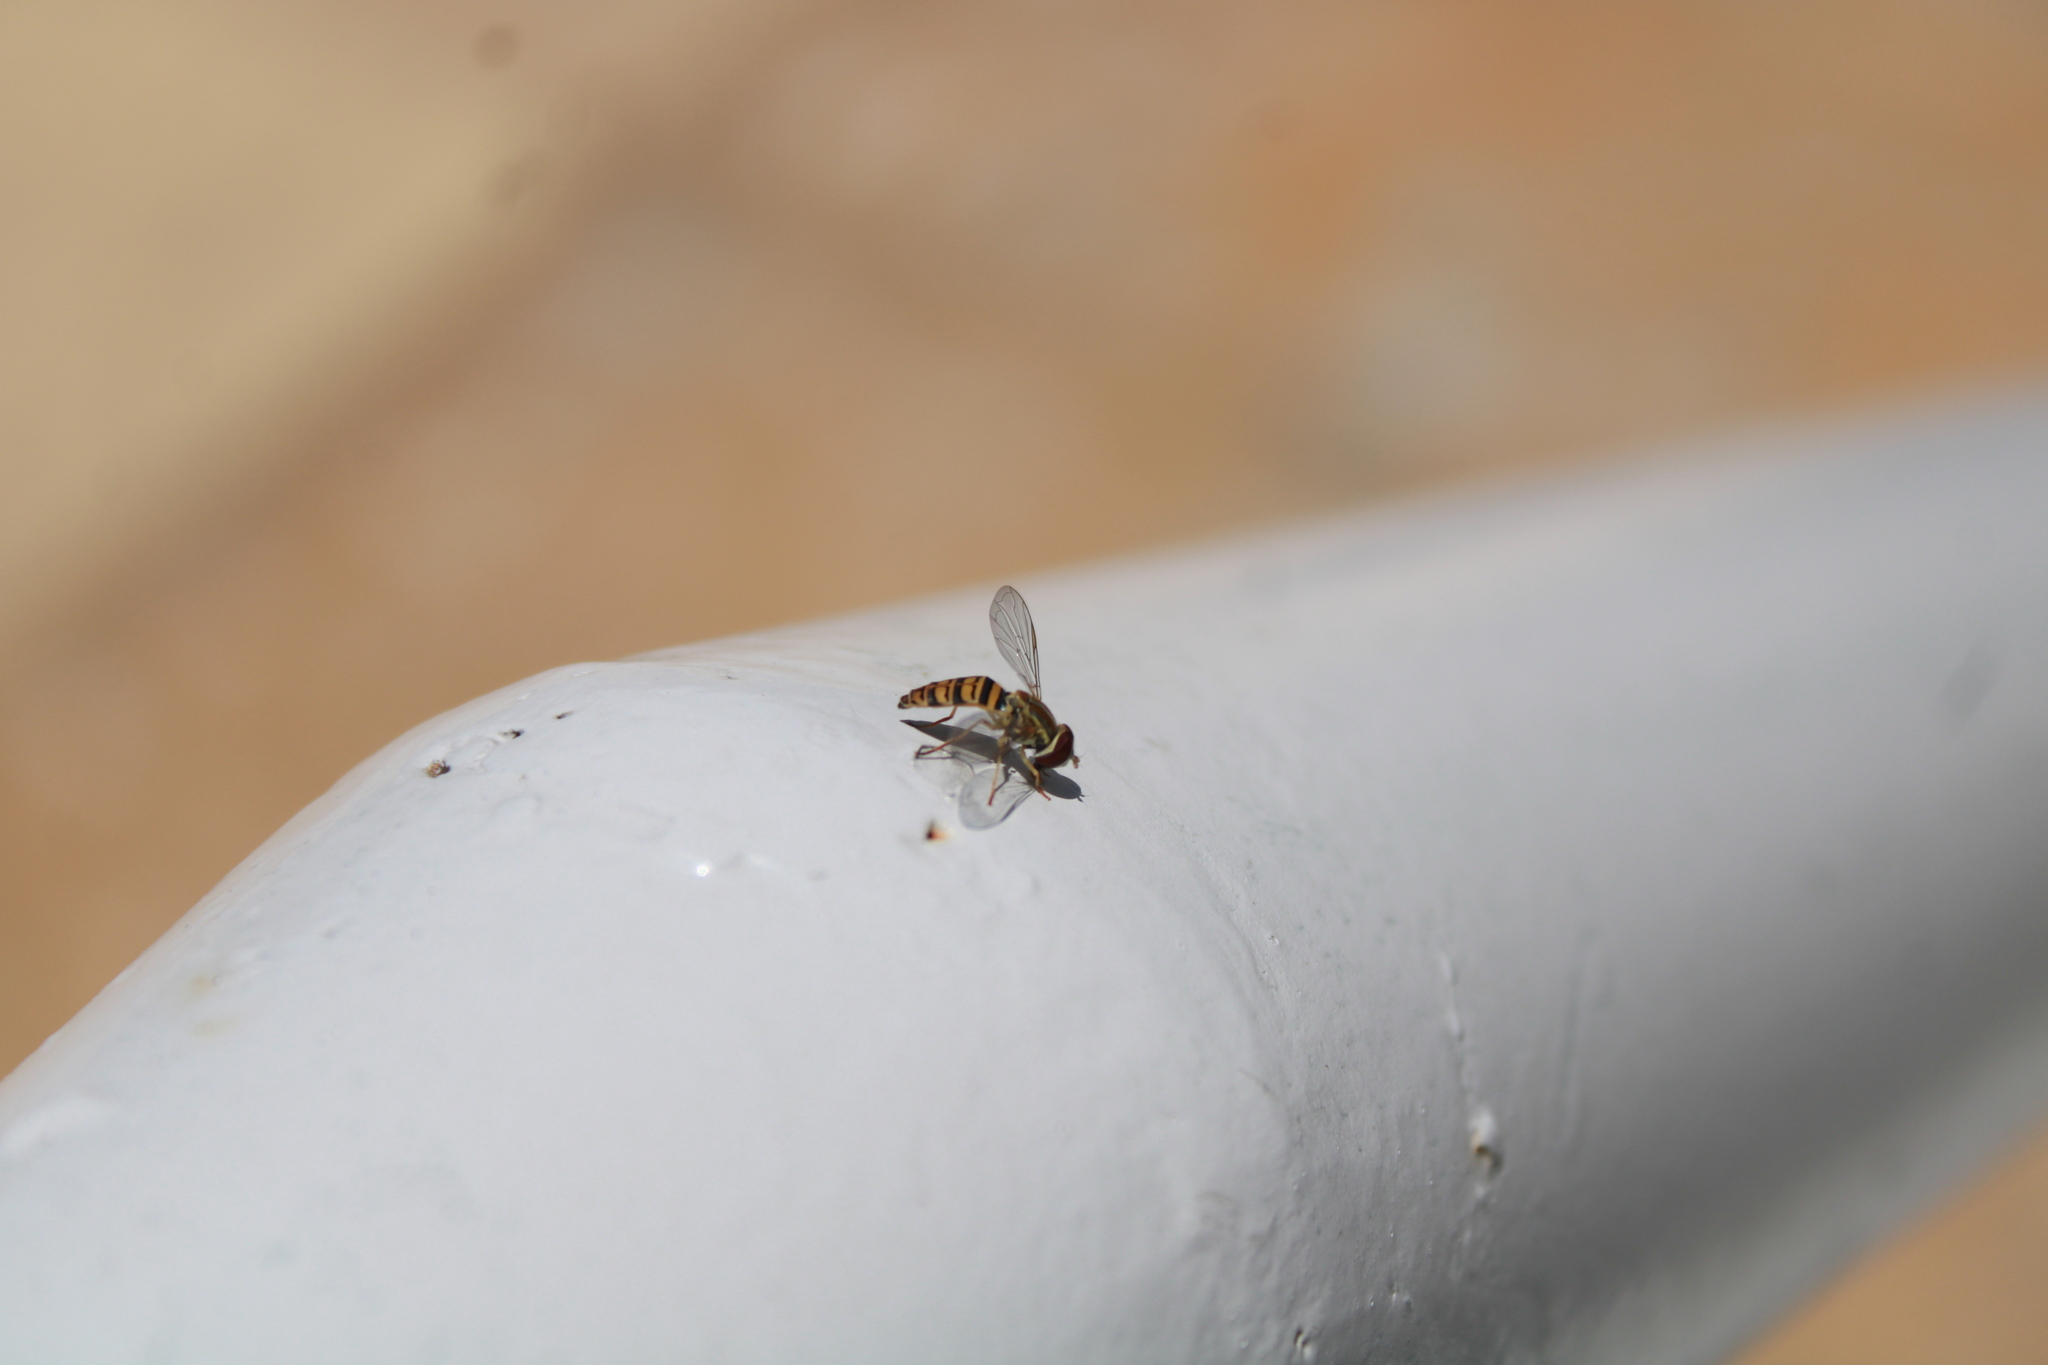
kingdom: Animalia
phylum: Arthropoda
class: Insecta
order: Diptera
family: Syrphidae
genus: Toxomerus
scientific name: Toxomerus politus
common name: Maize calligrapher
